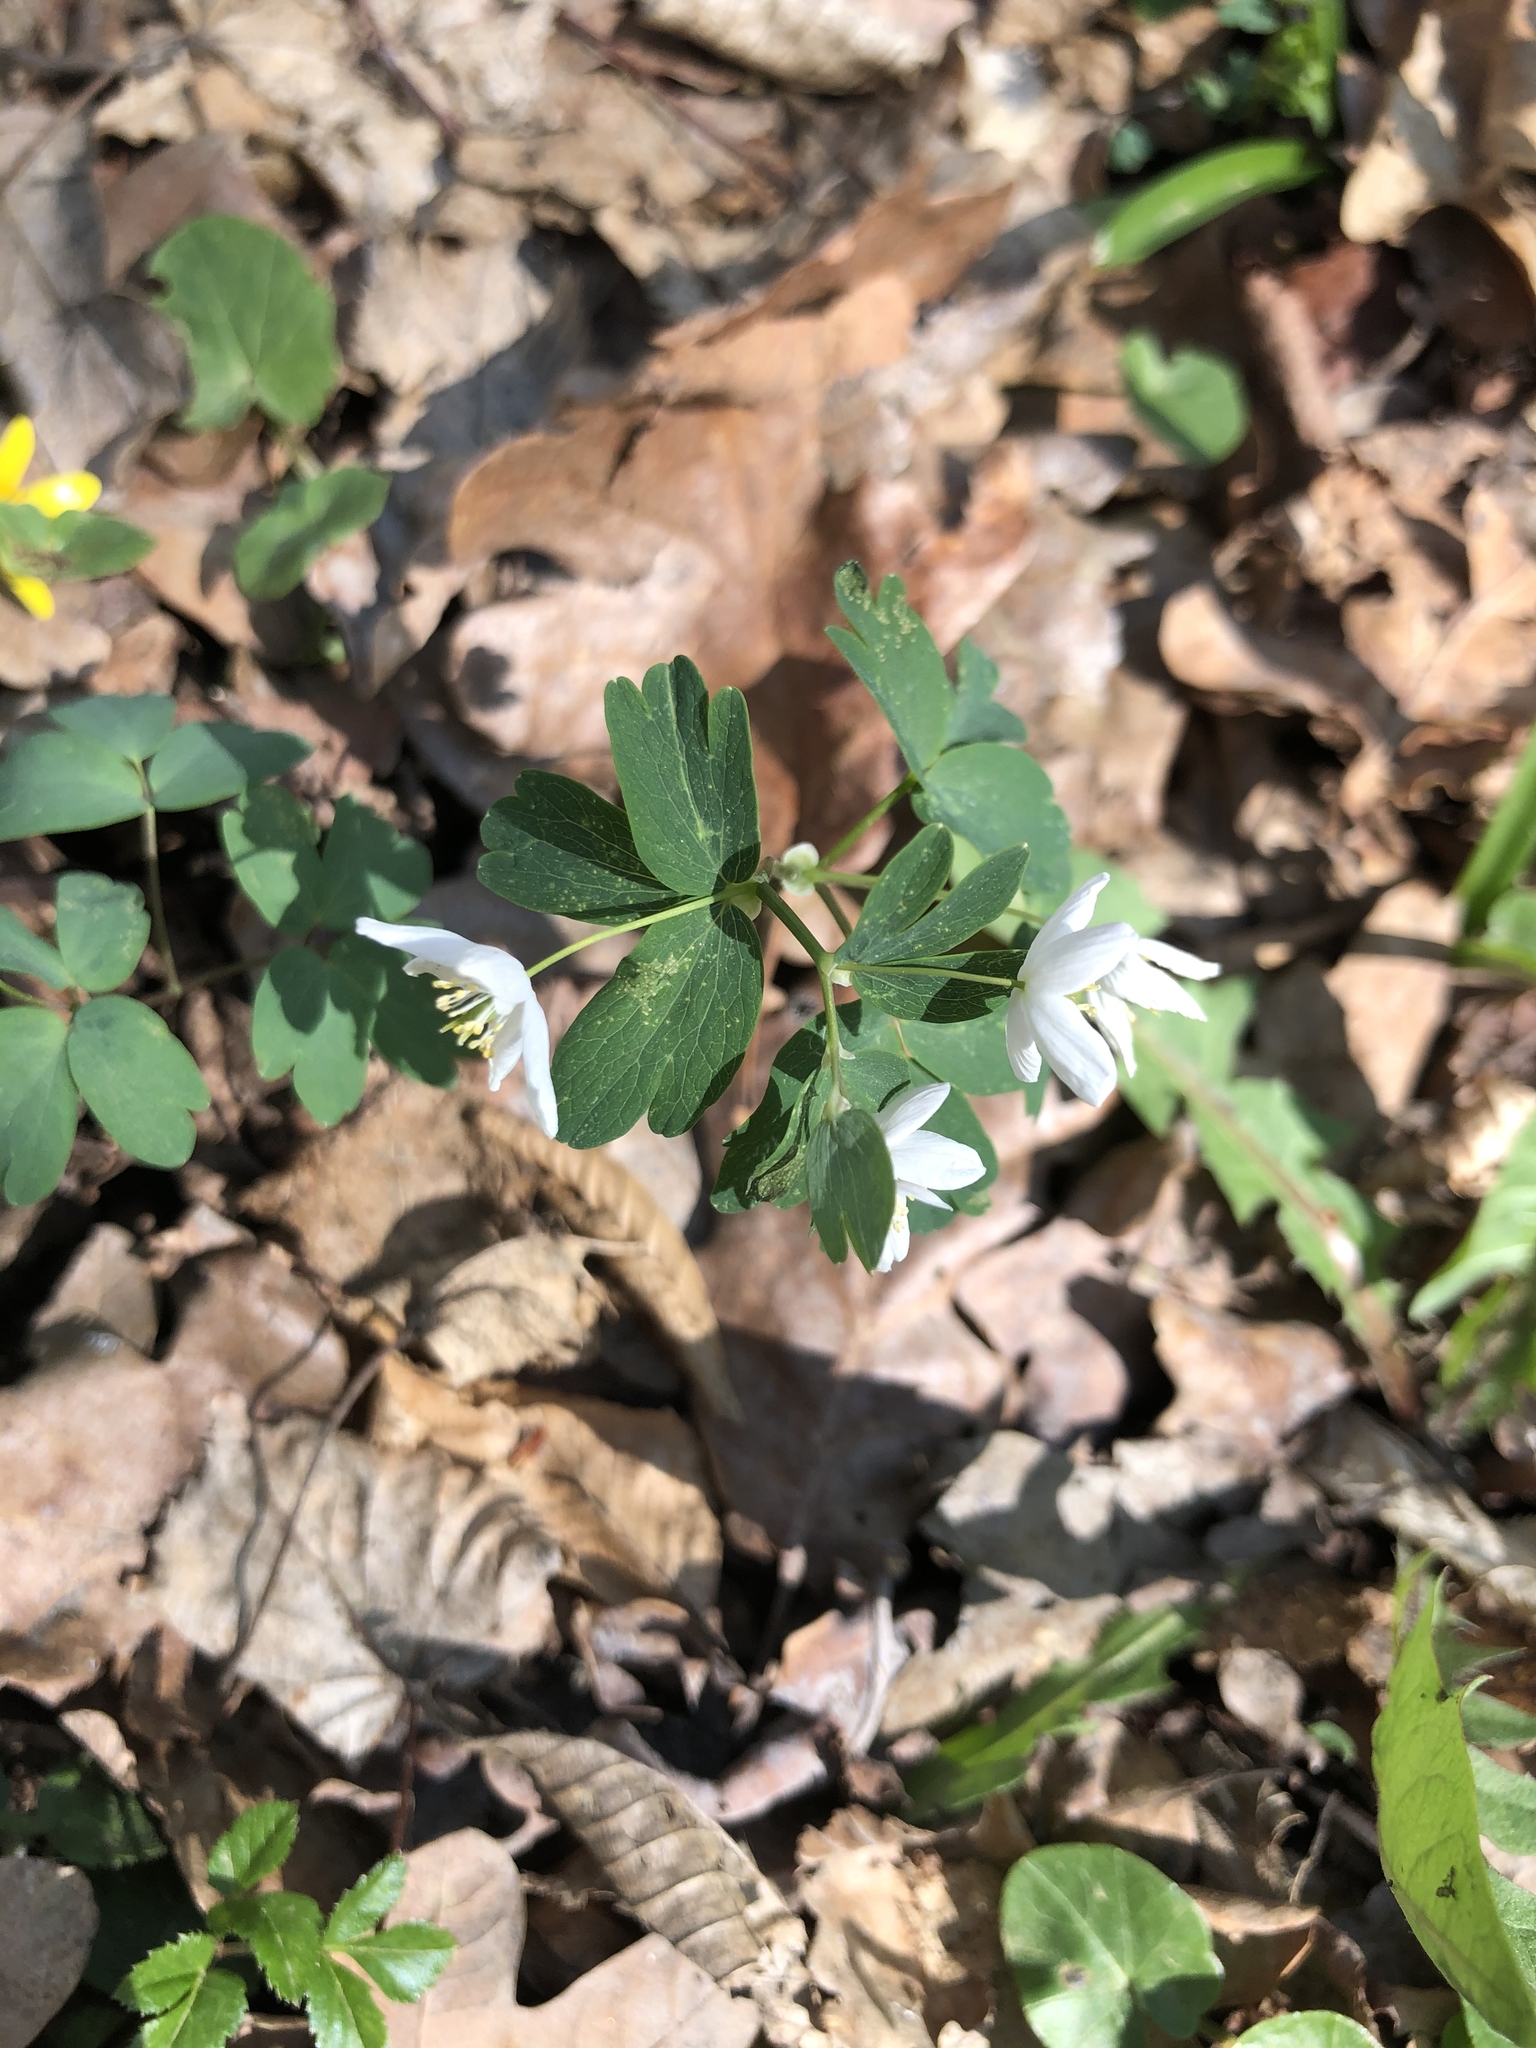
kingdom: Plantae
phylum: Tracheophyta
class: Magnoliopsida
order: Ranunculales
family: Ranunculaceae
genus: Isopyrum
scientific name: Isopyrum thalictroides
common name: Isopyrum
